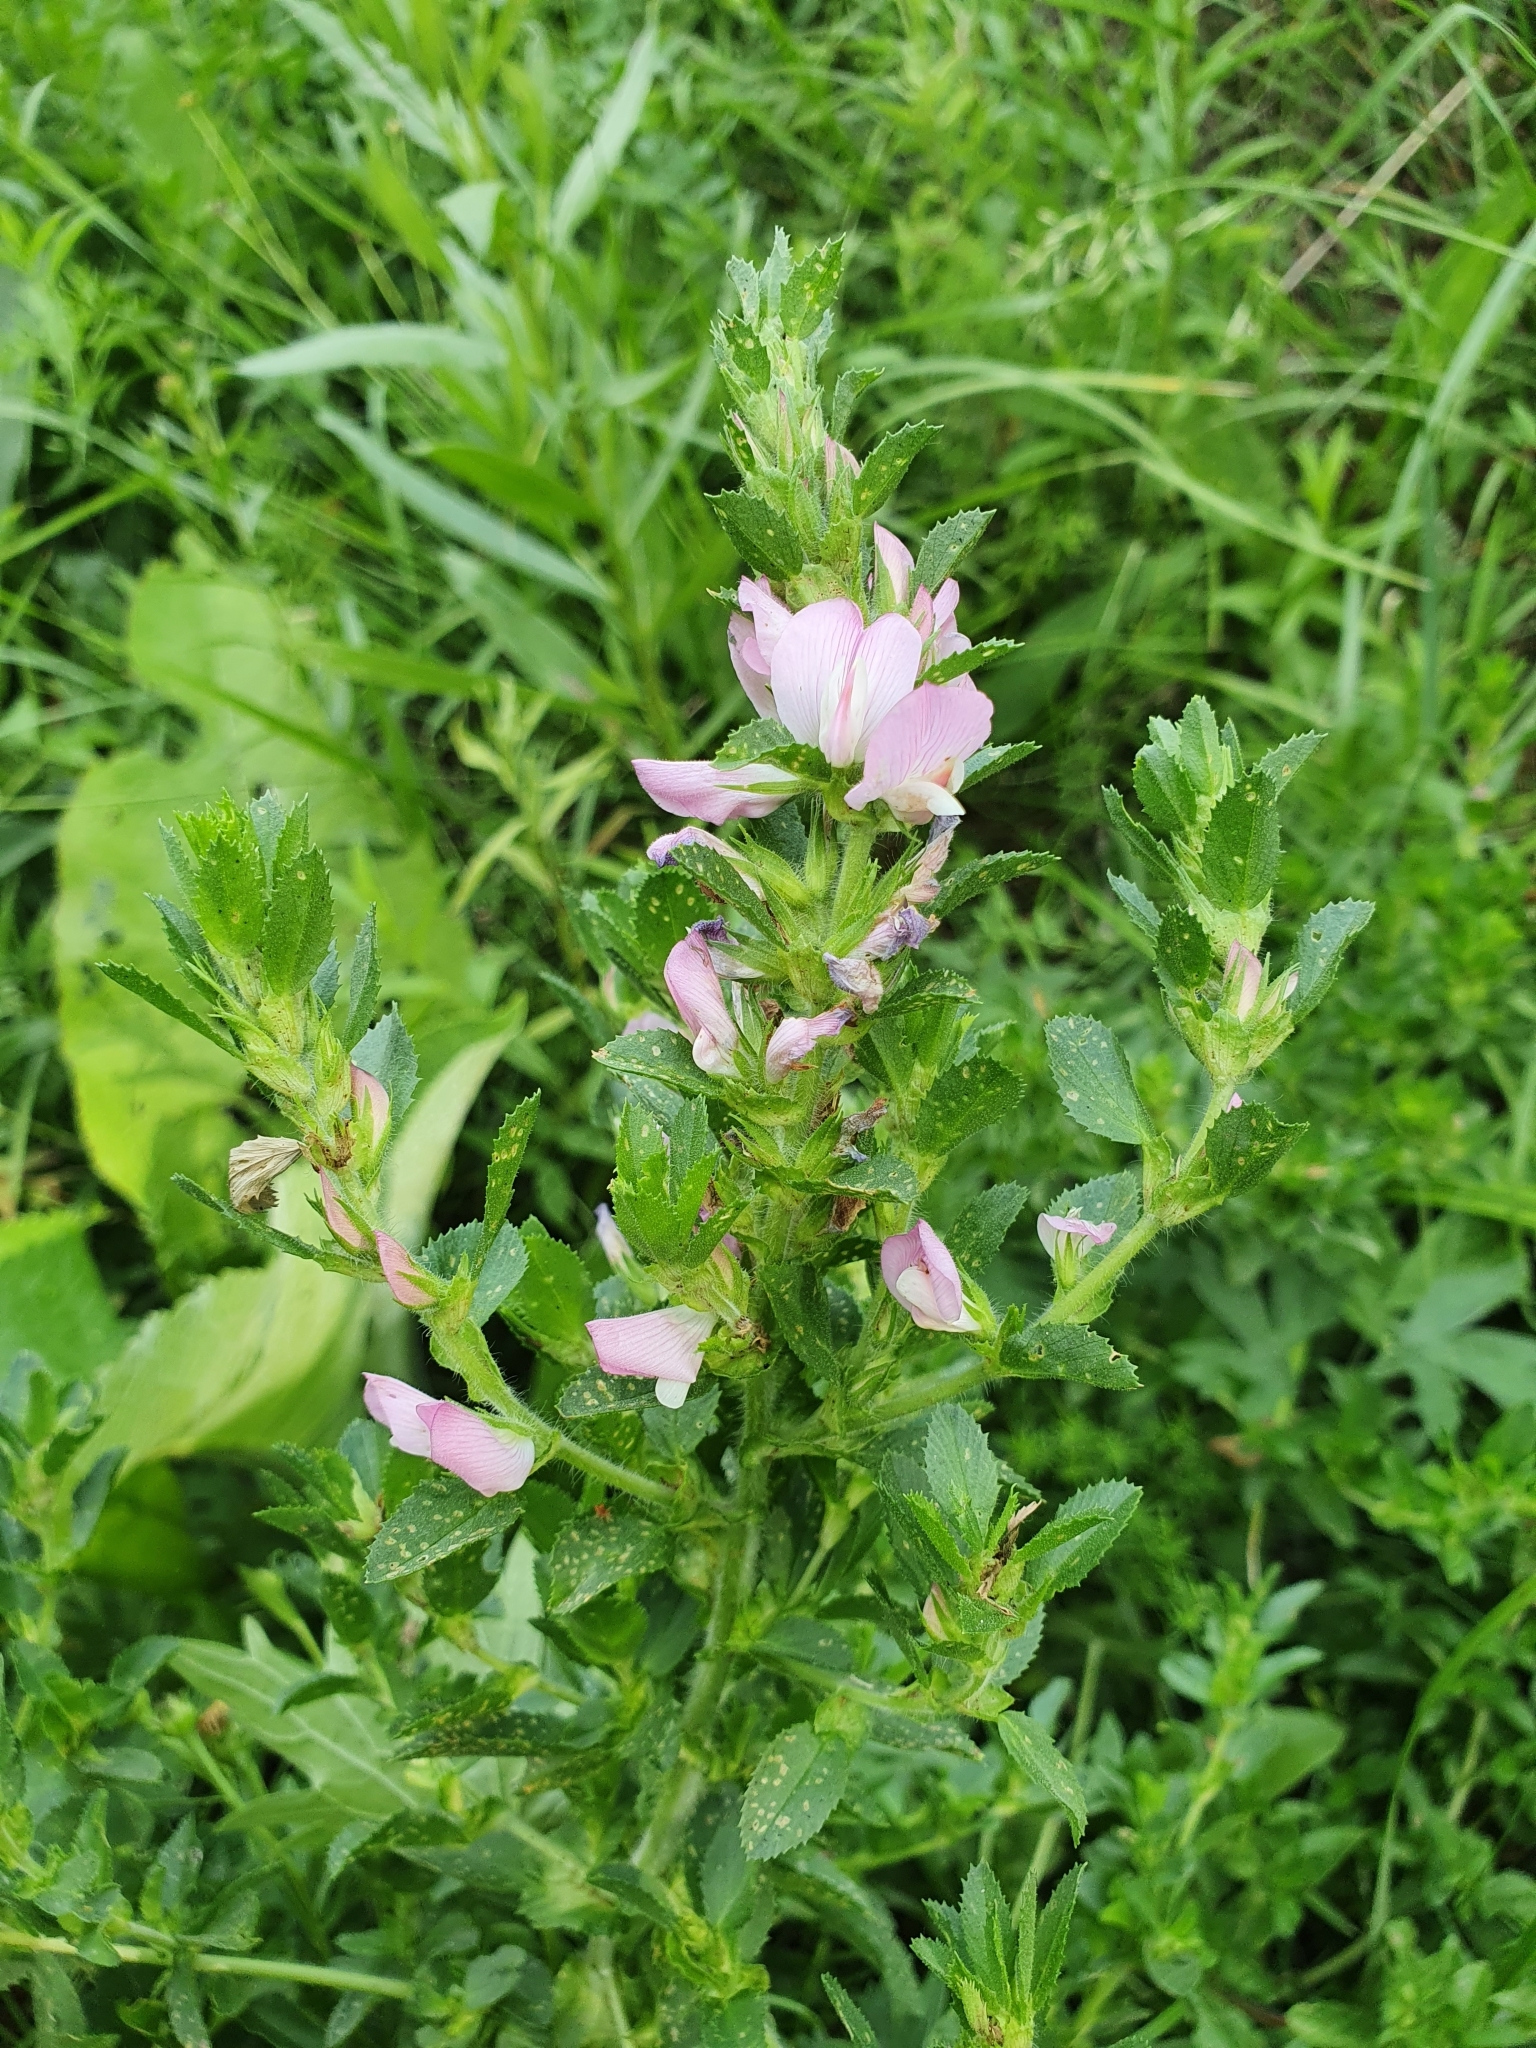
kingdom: Plantae
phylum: Tracheophyta
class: Magnoliopsida
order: Fabales
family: Fabaceae
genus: Ononis
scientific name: Ononis arvensis
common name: Field restharrow
